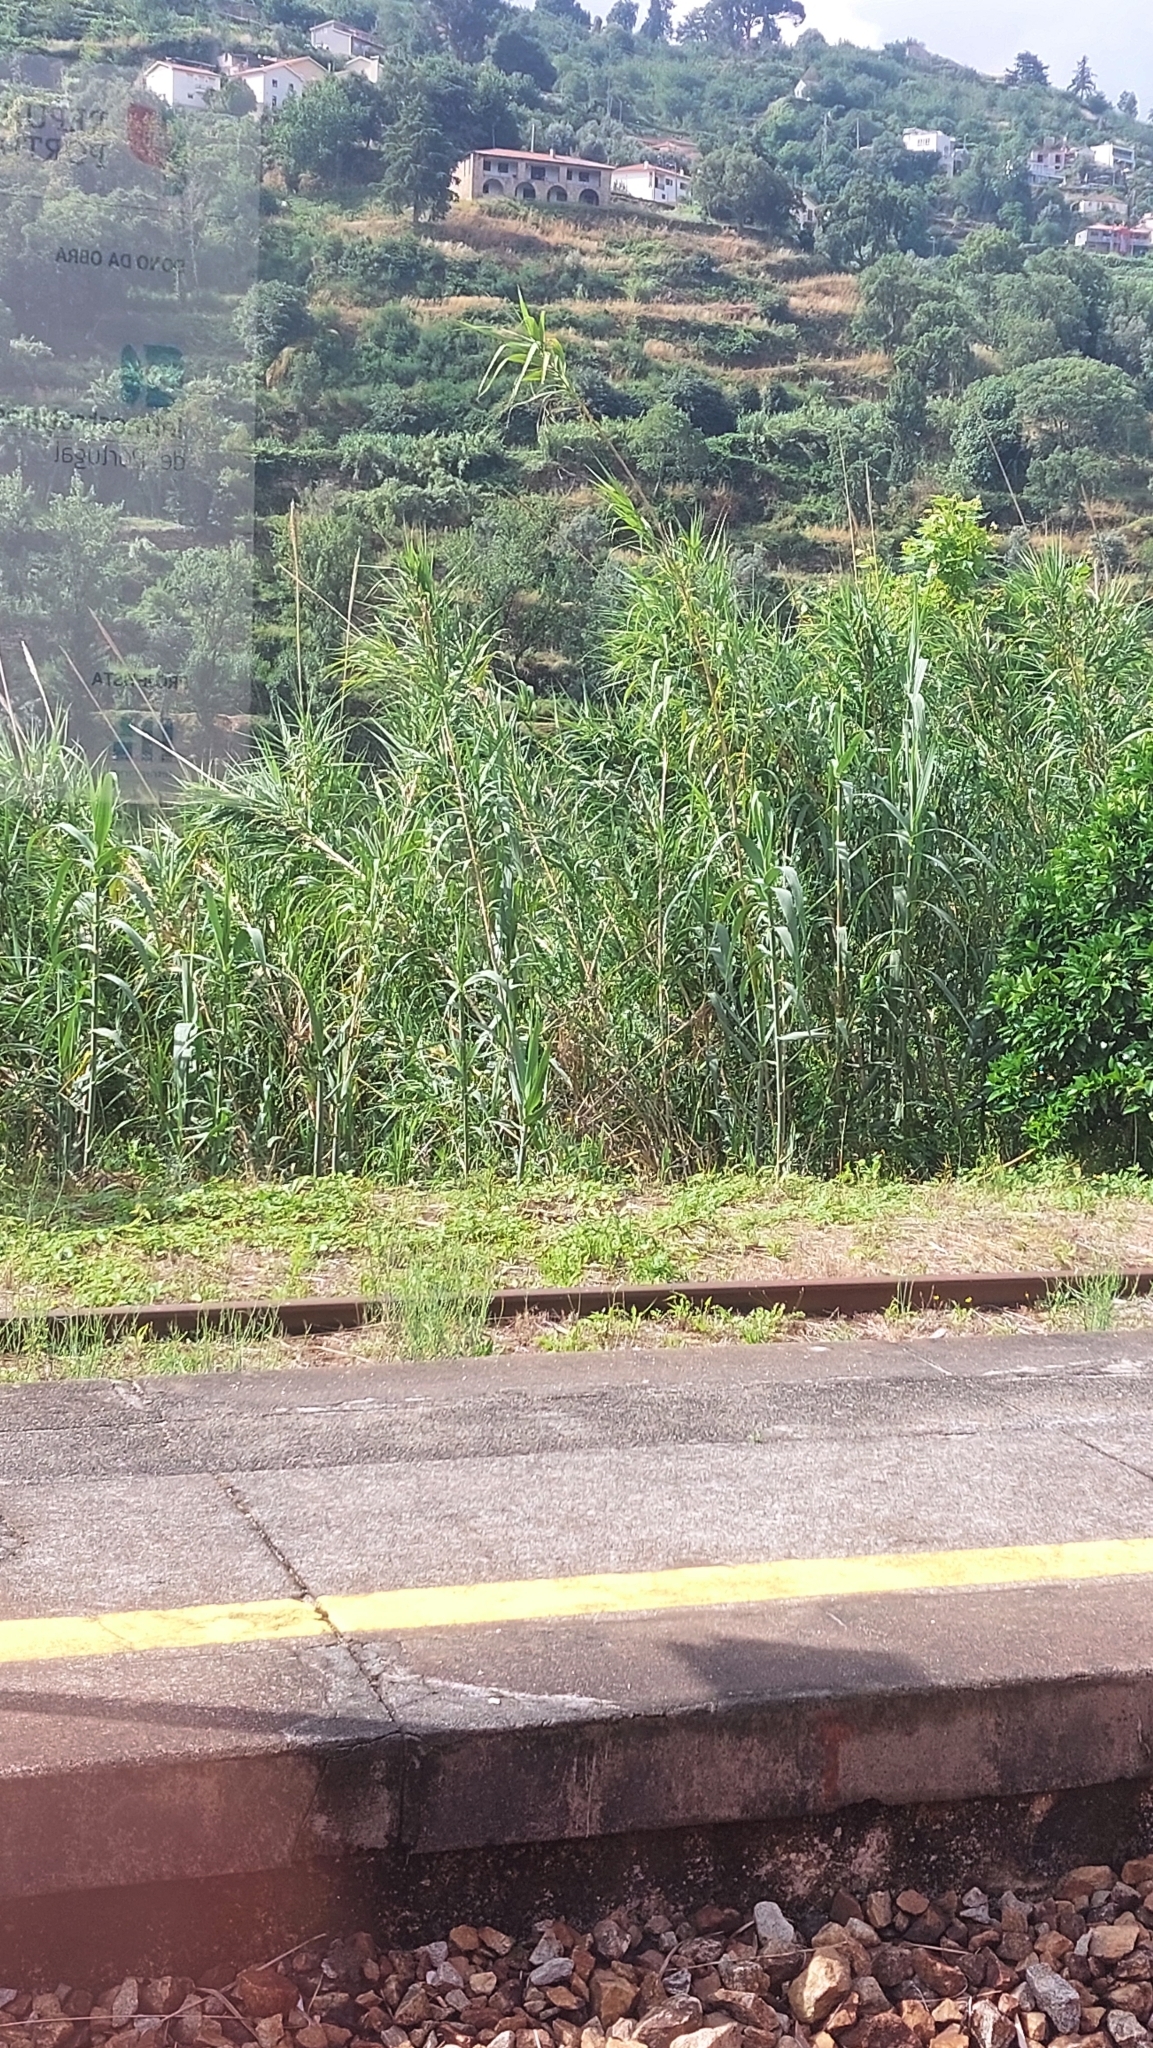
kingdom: Plantae
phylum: Tracheophyta
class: Liliopsida
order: Poales
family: Poaceae
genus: Arundo
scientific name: Arundo donax
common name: Giant reed
